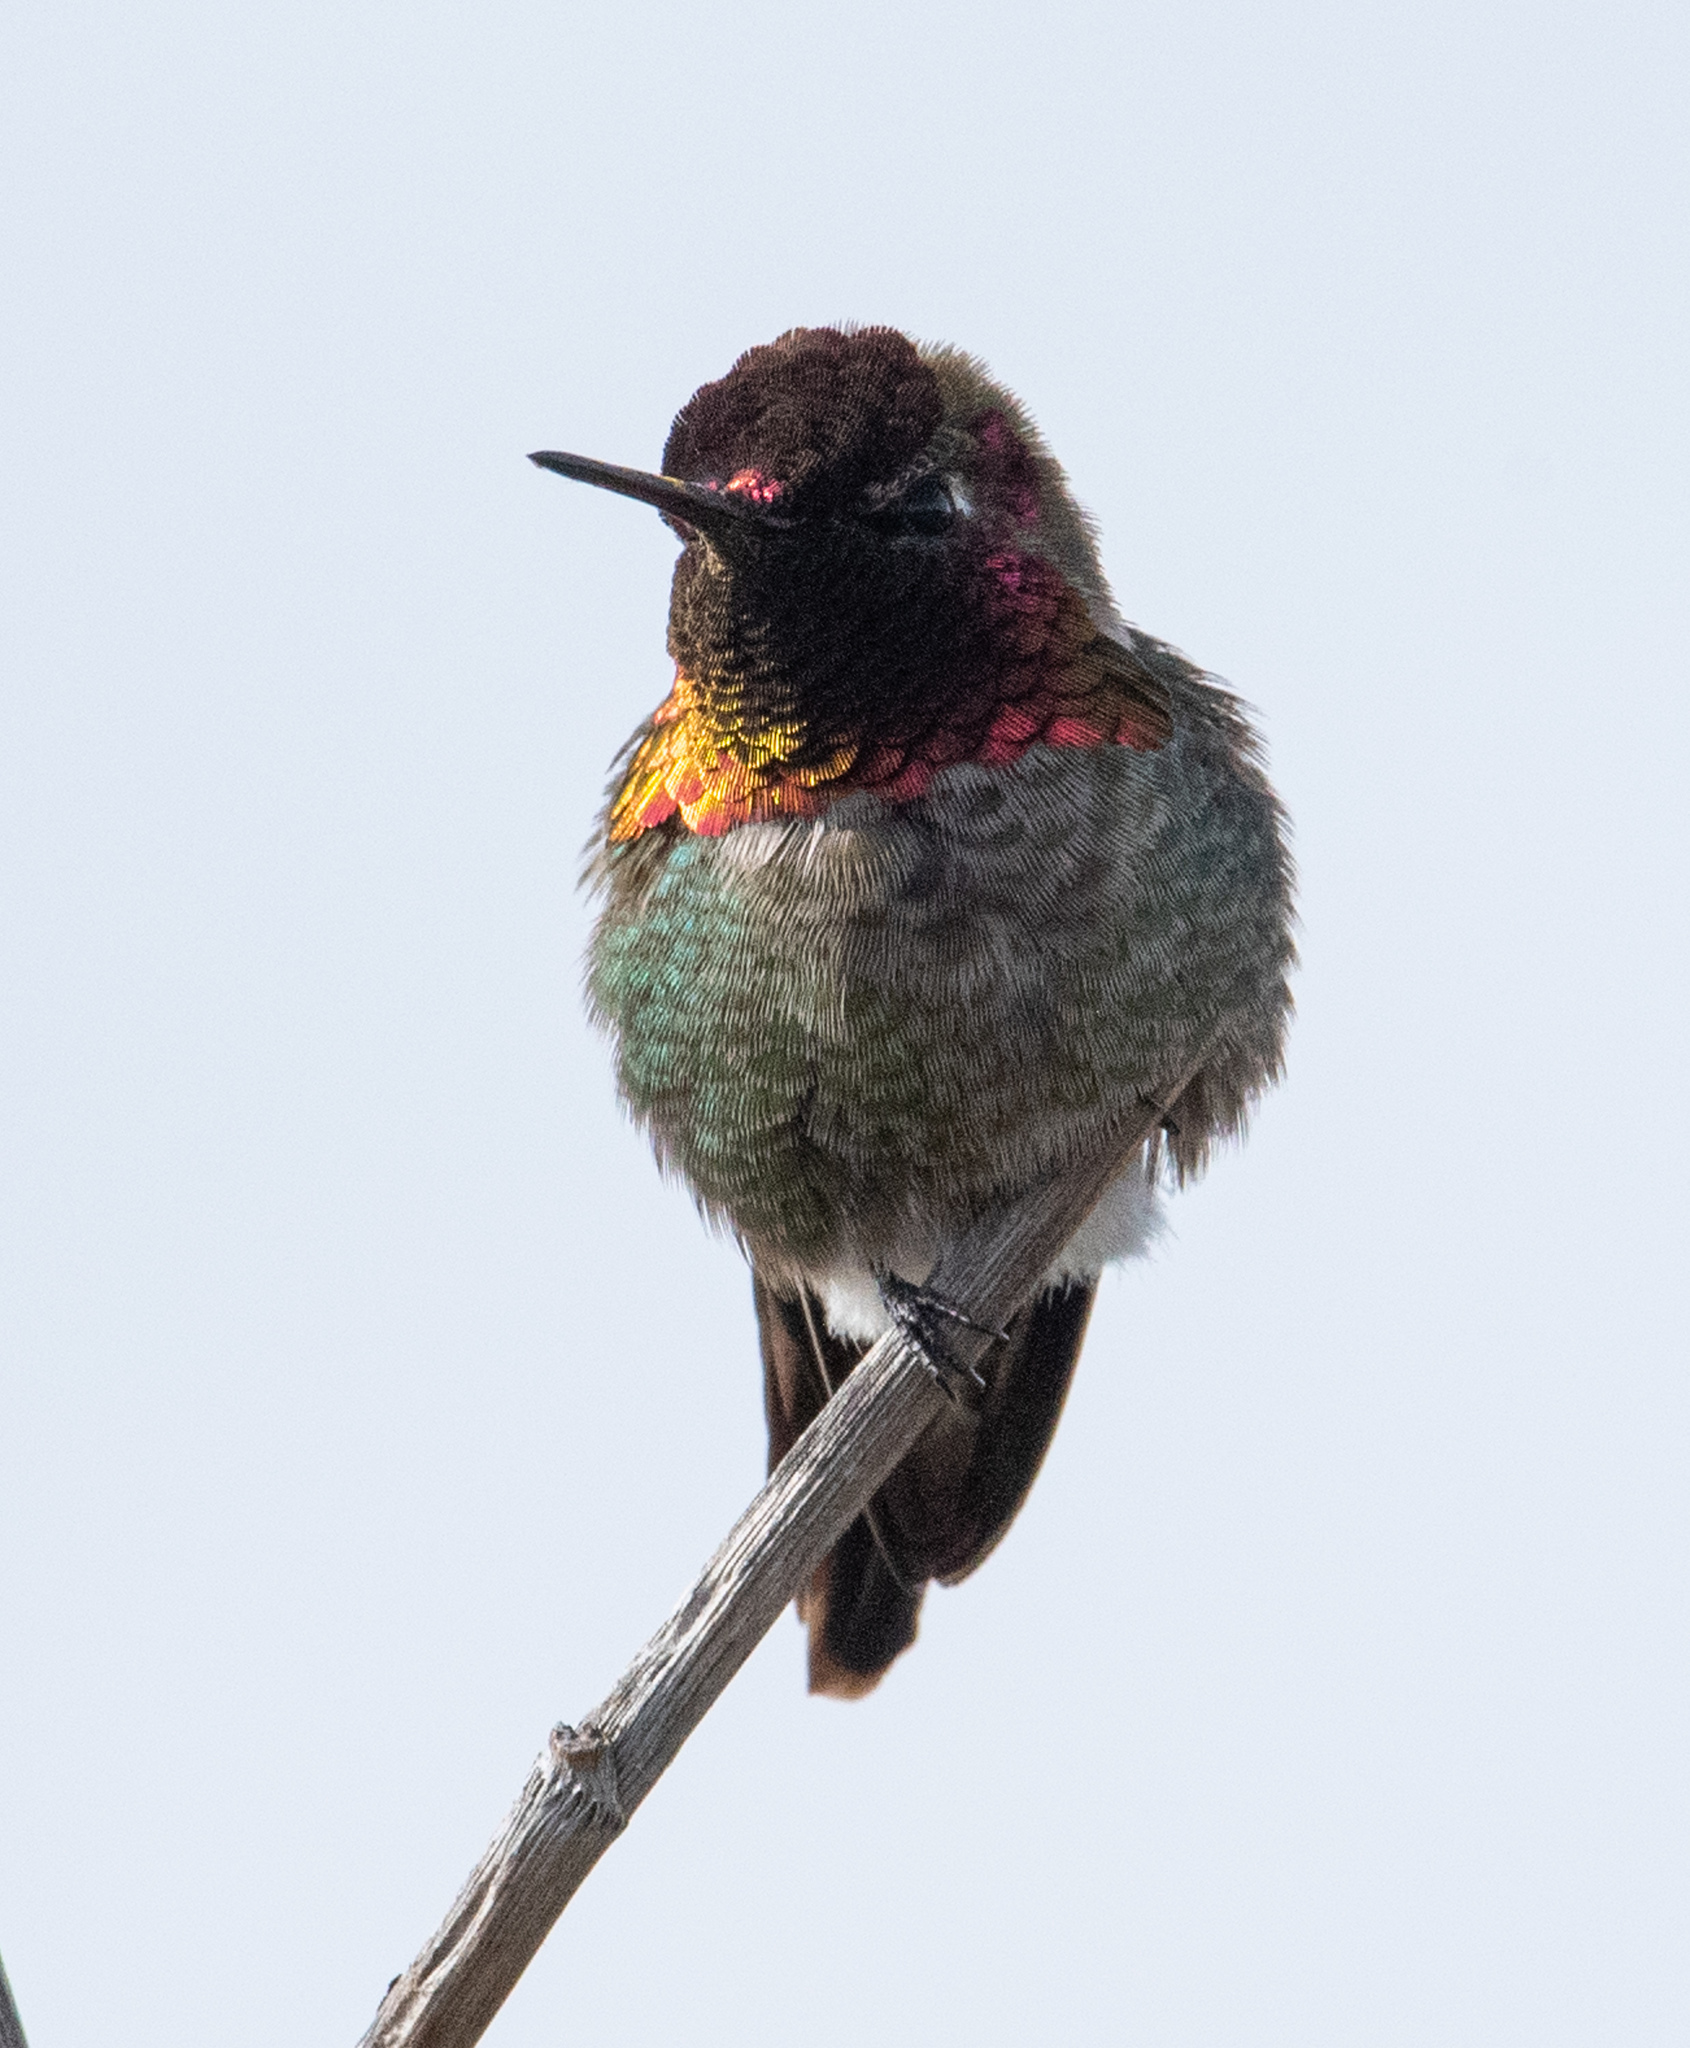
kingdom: Animalia
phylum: Chordata
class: Aves
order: Apodiformes
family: Trochilidae
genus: Calypte
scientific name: Calypte anna
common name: Anna's hummingbird
